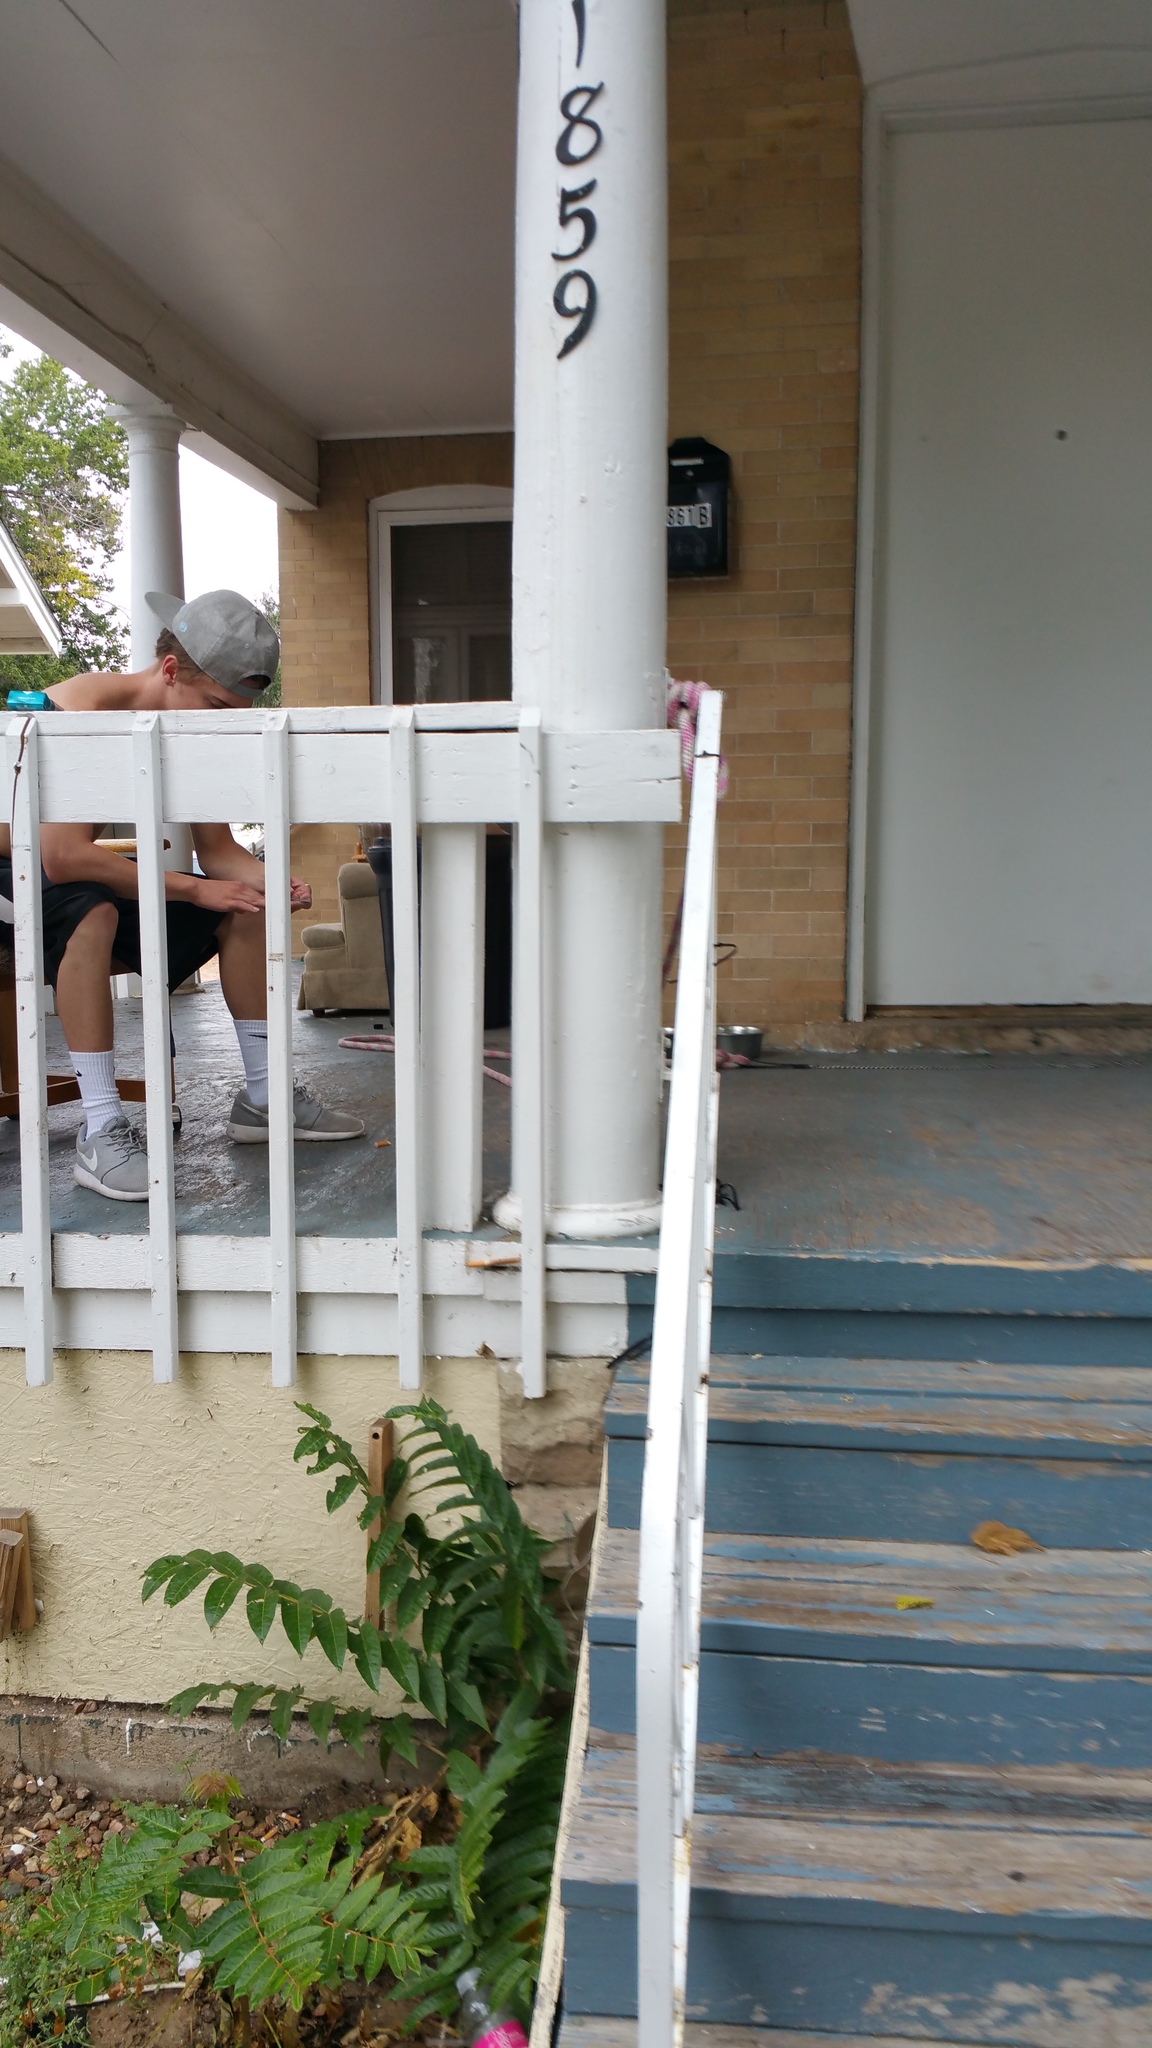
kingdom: Plantae
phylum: Tracheophyta
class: Magnoliopsida
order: Sapindales
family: Simaroubaceae
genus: Ailanthus
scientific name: Ailanthus altissima
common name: Tree-of-heaven
